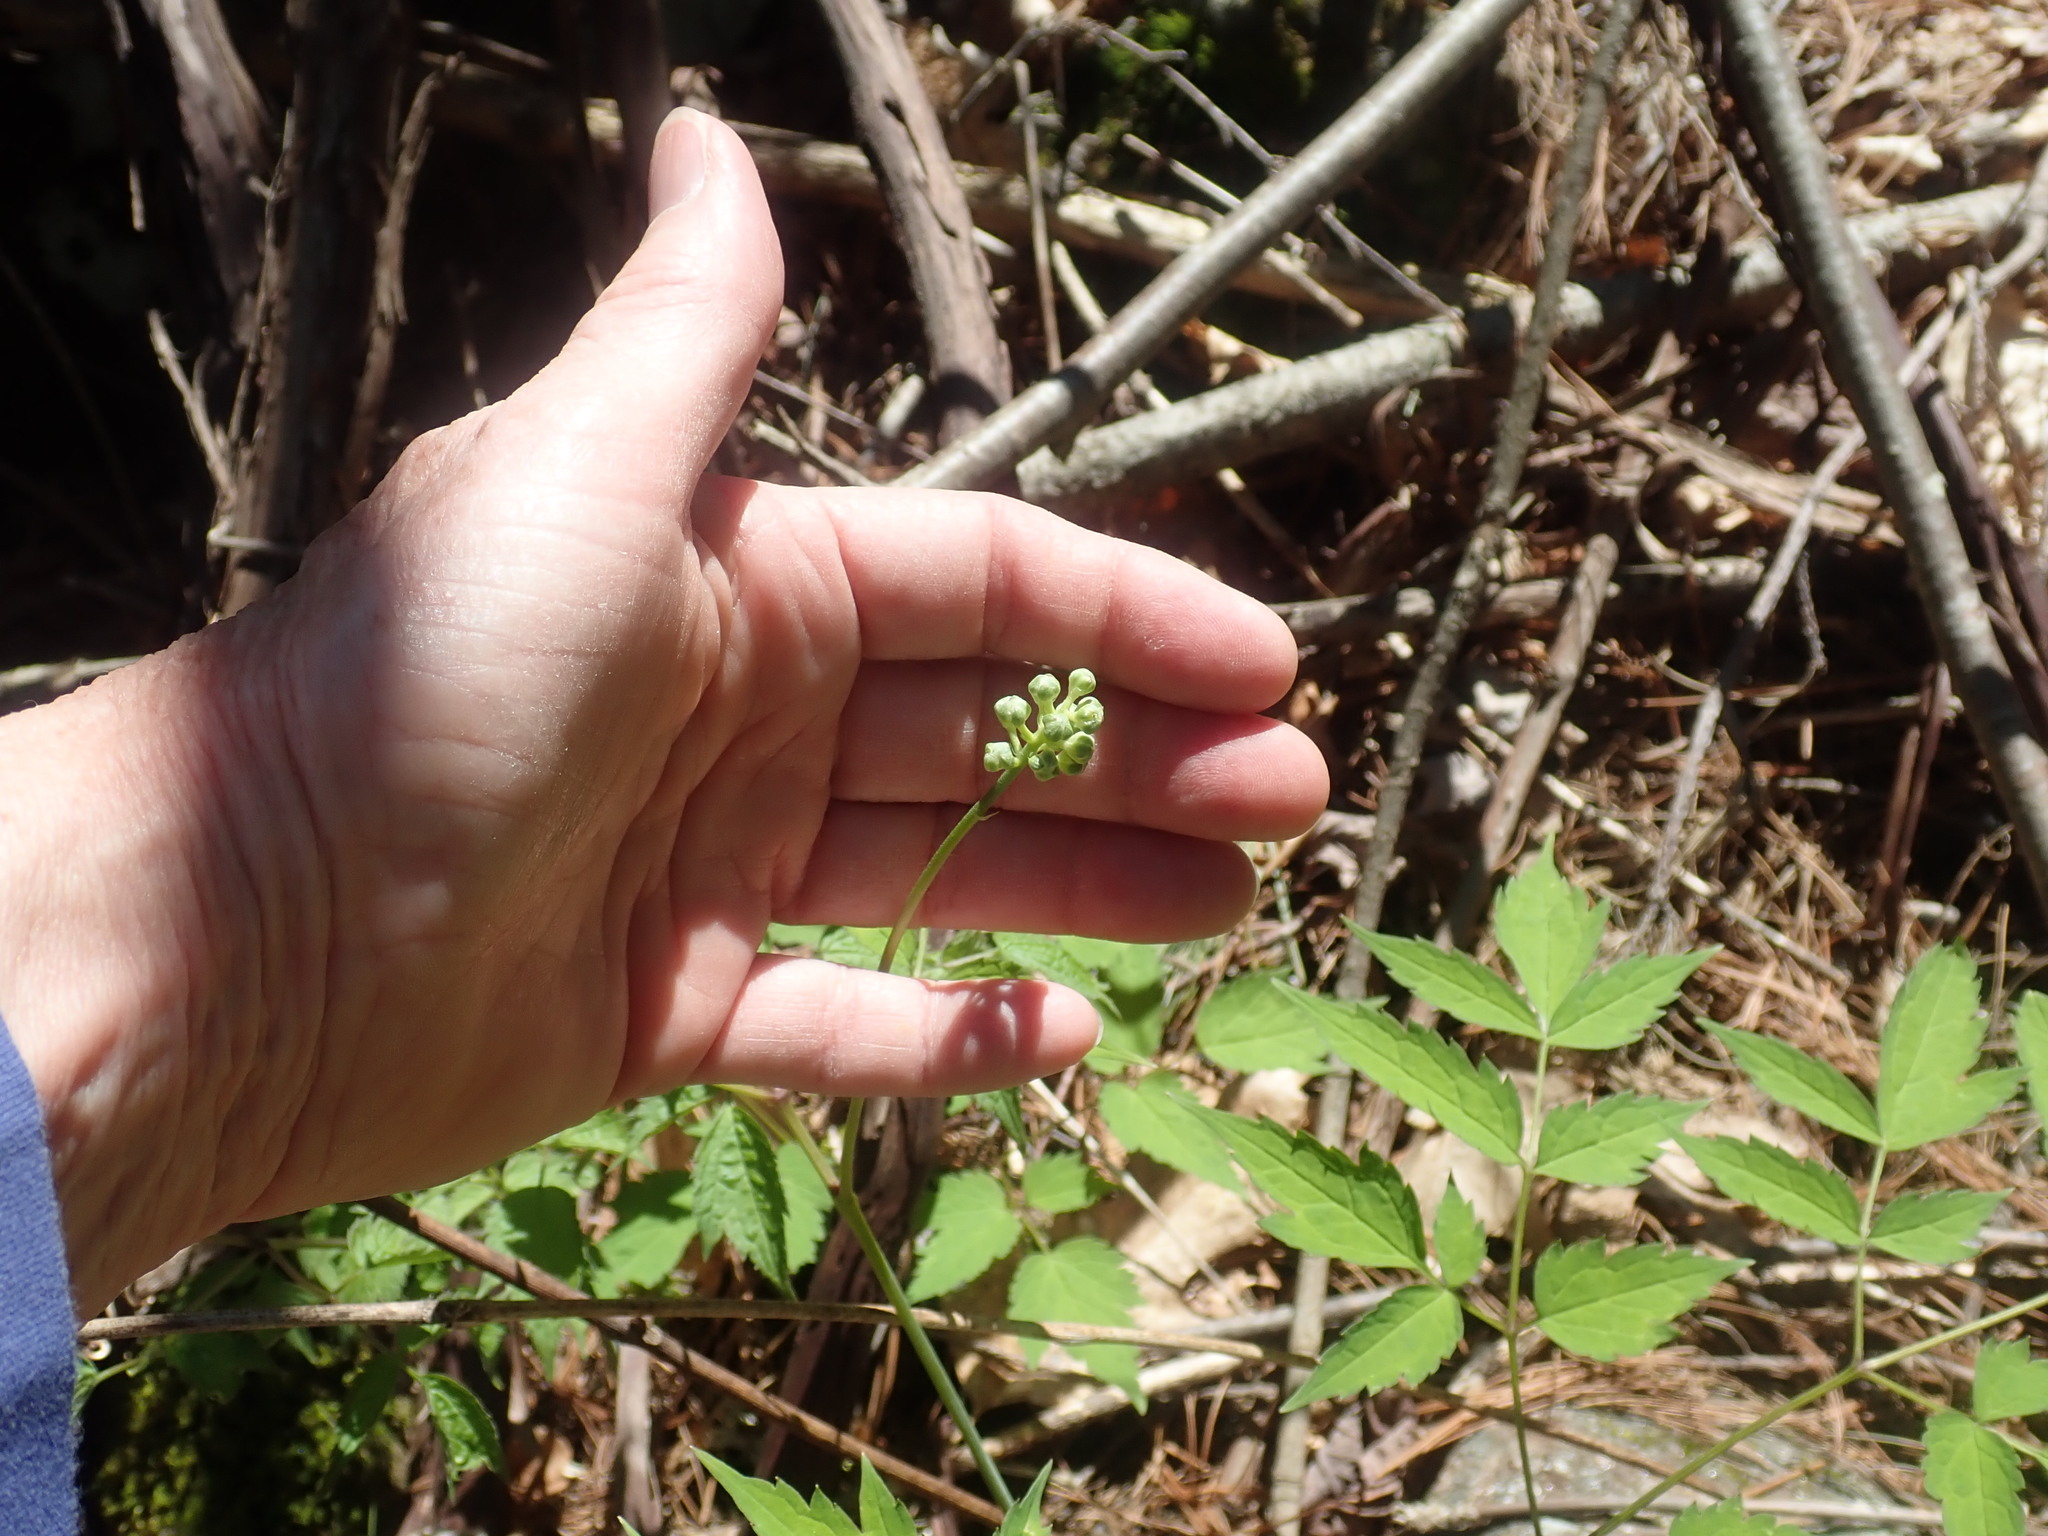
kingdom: Plantae
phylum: Tracheophyta
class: Magnoliopsida
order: Ranunculales
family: Ranunculaceae
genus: Actaea
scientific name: Actaea pachypoda
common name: Doll's-eyes
